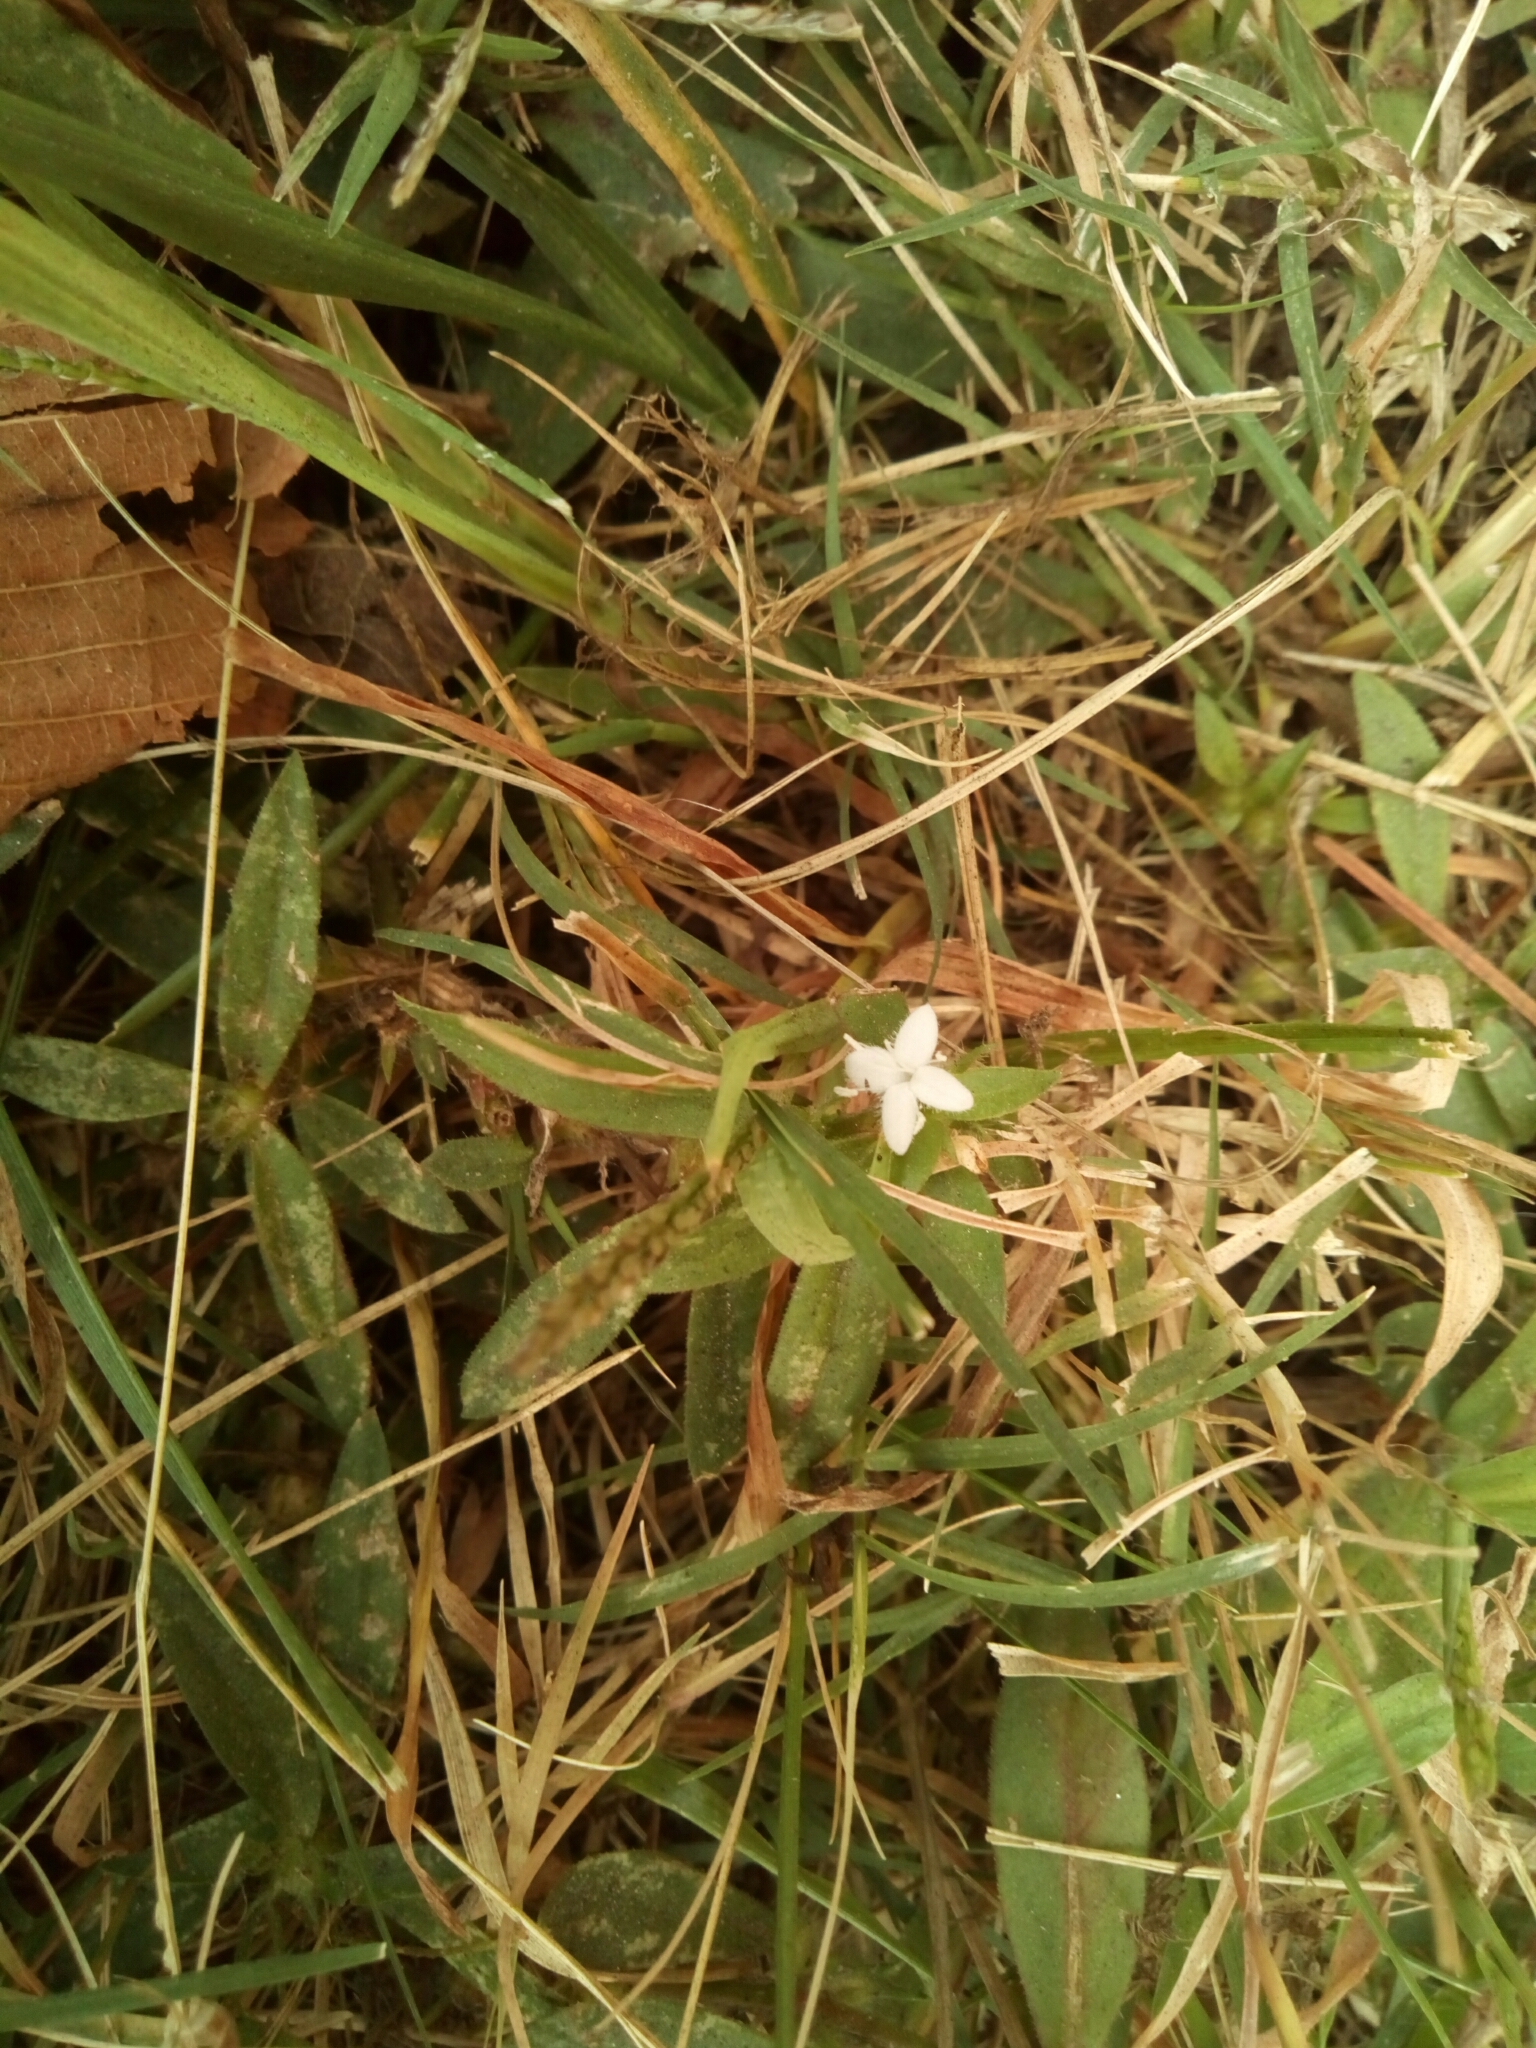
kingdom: Plantae
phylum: Tracheophyta
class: Magnoliopsida
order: Gentianales
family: Rubiaceae
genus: Diodia
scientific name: Diodia virginiana
